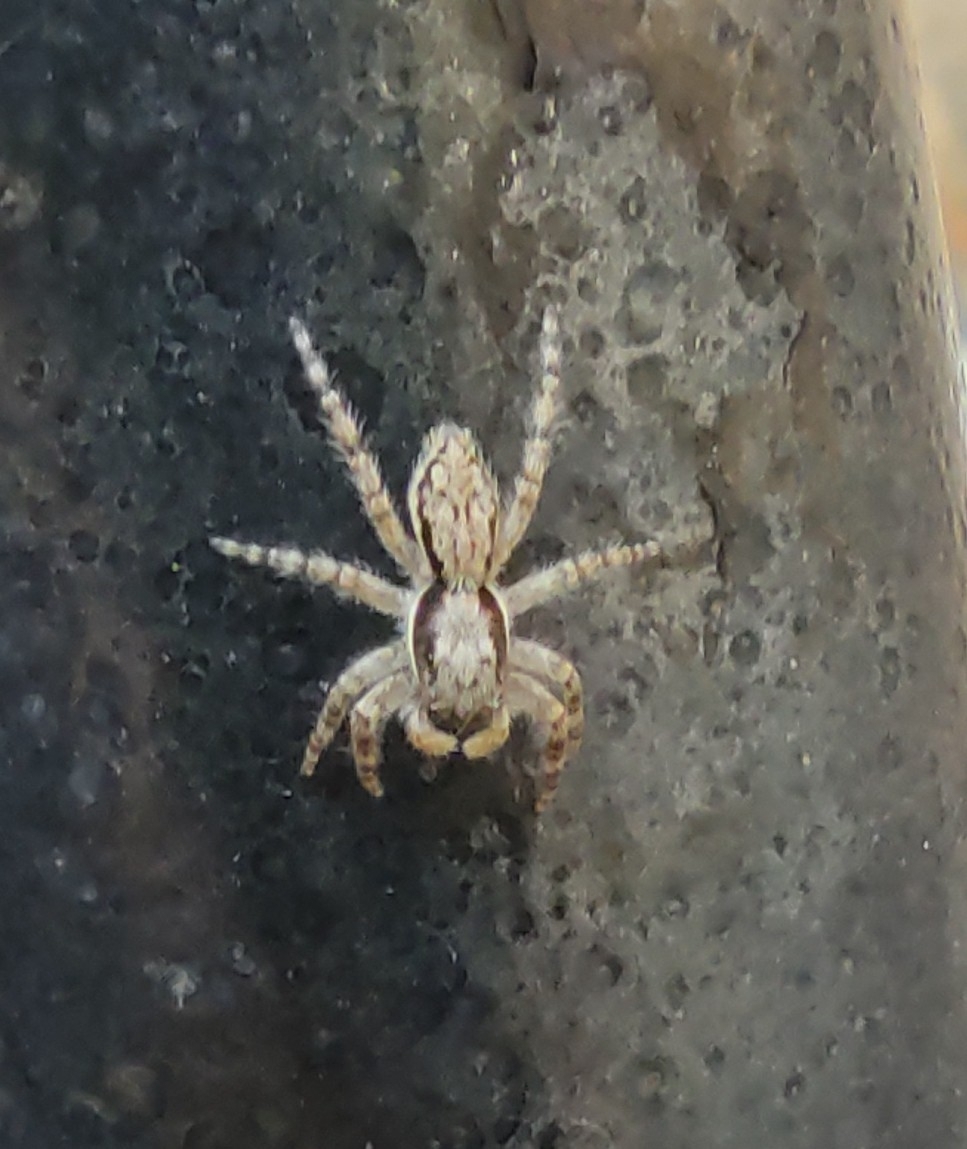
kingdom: Animalia
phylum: Arthropoda
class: Arachnida
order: Araneae
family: Salticidae
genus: Menemerus
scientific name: Menemerus bivittatus
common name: Gray wall jumper
